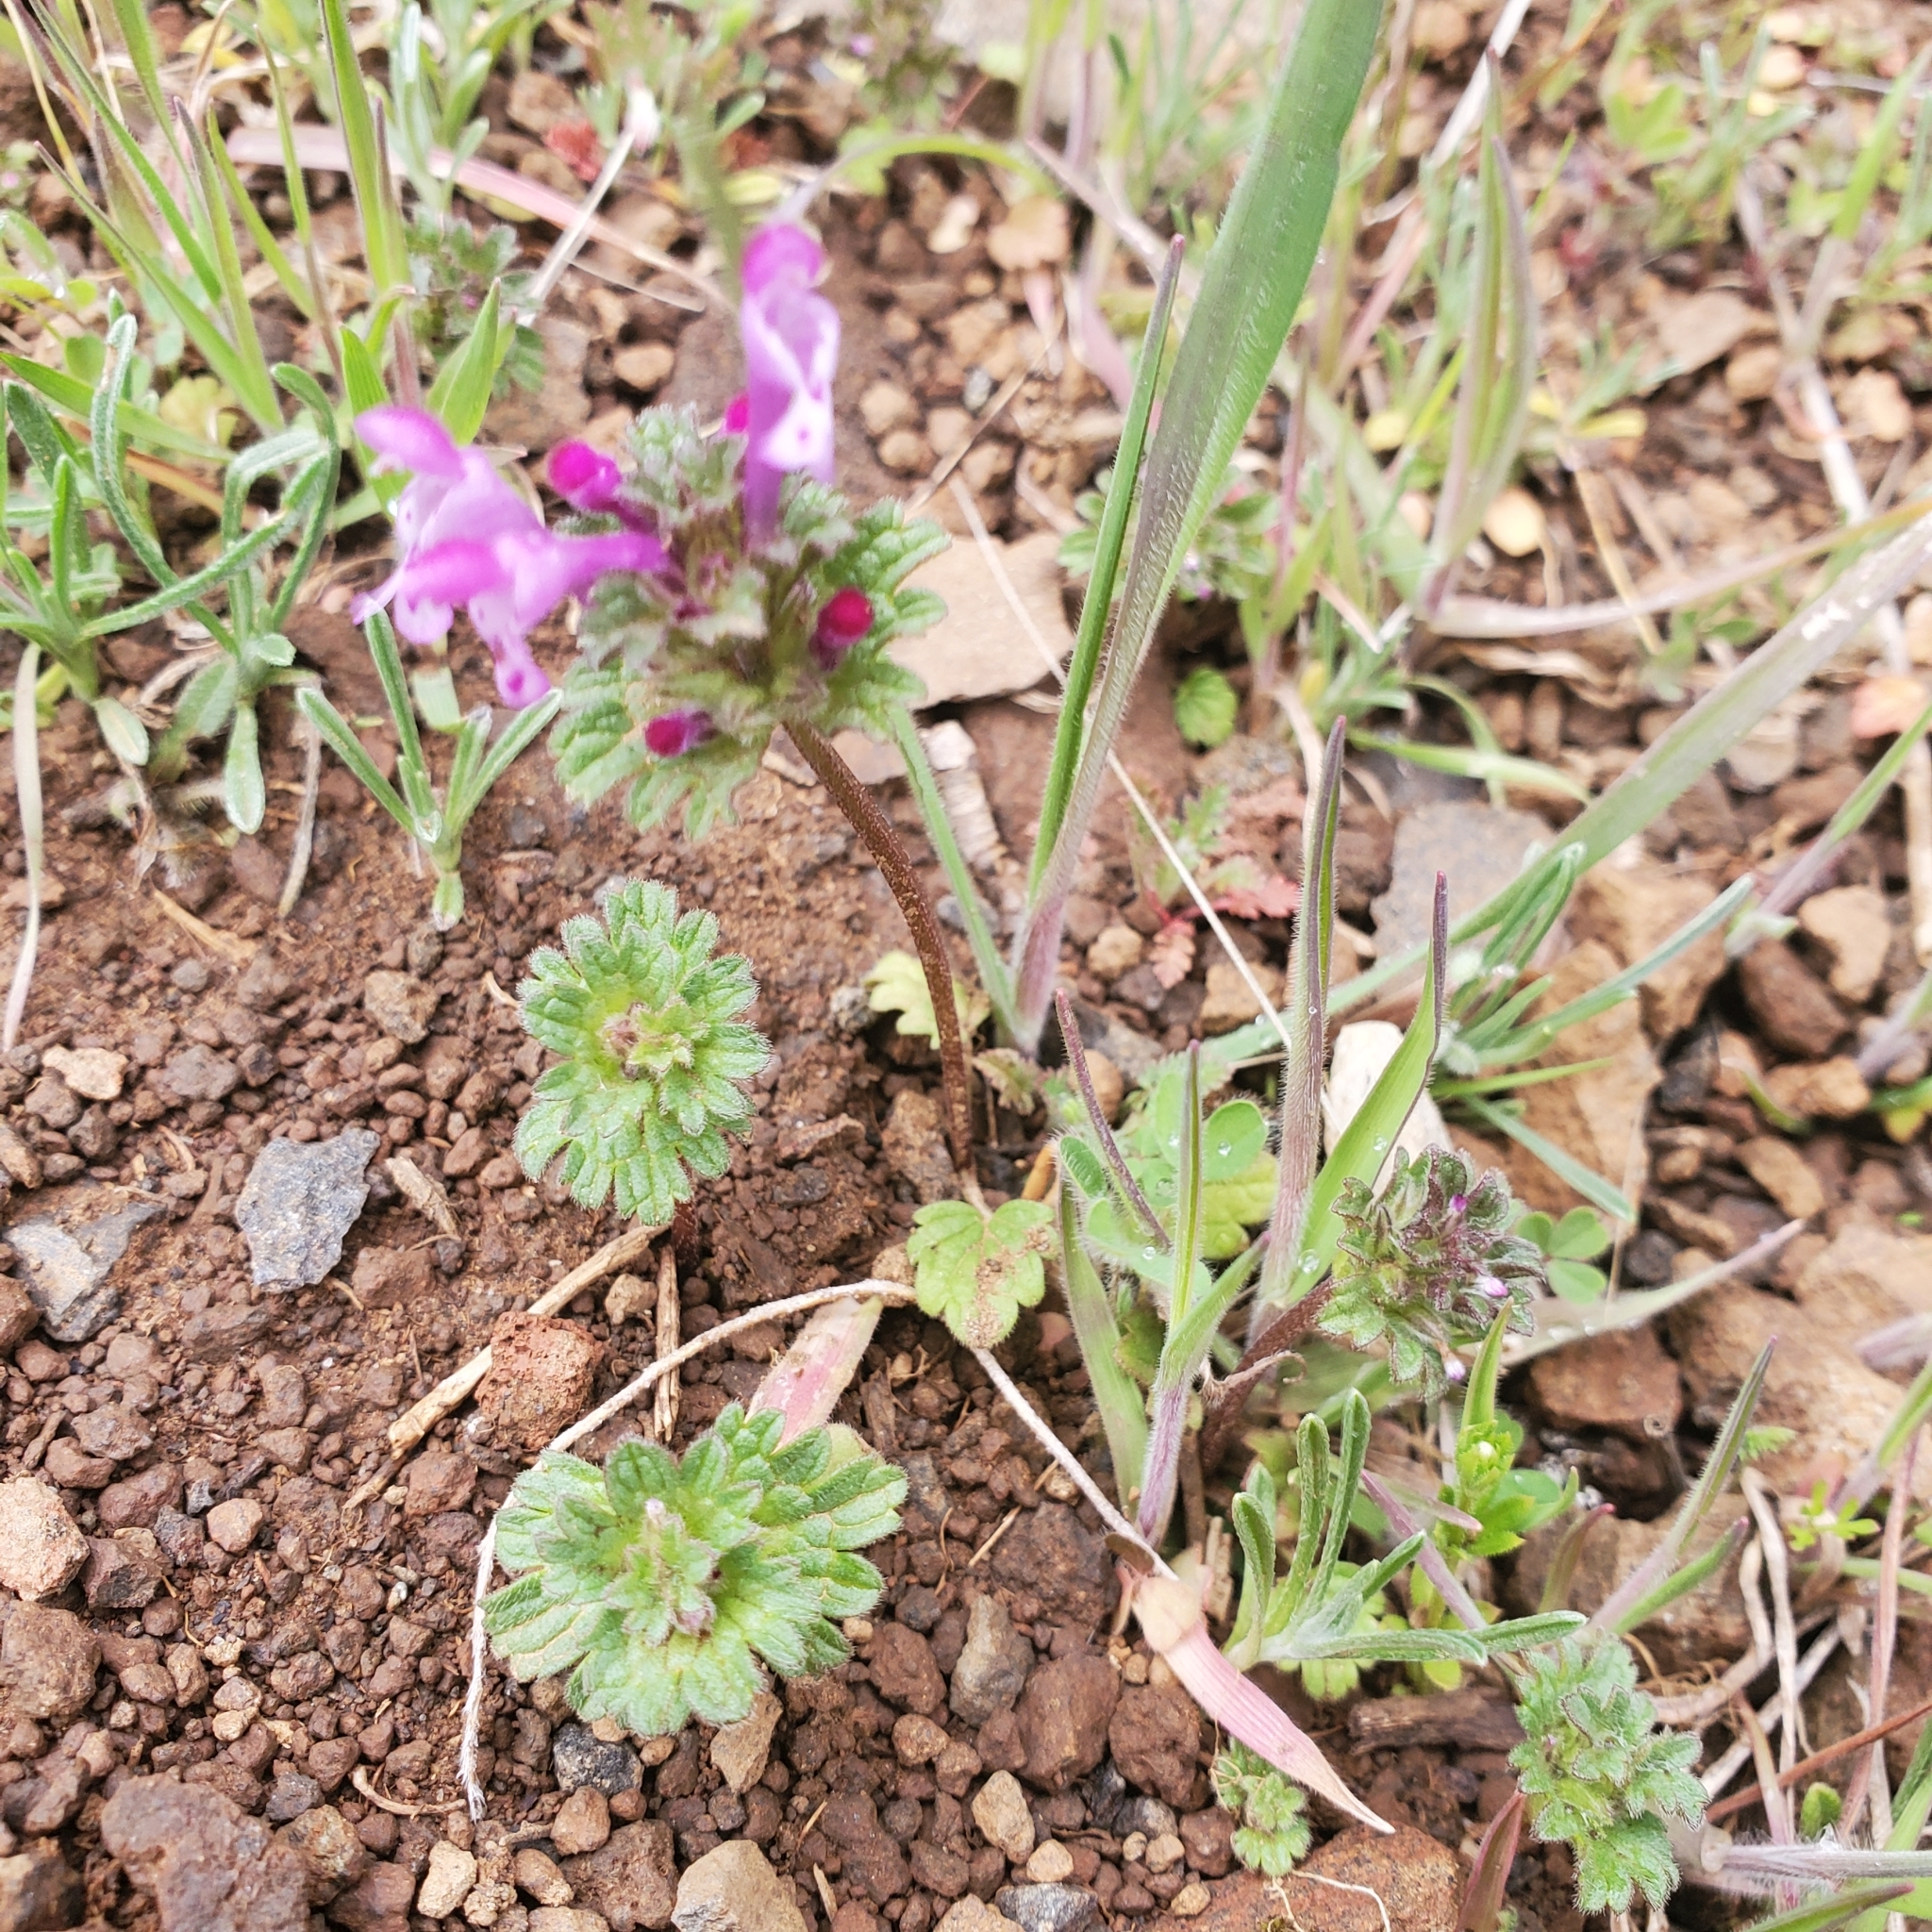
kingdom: Plantae
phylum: Tracheophyta
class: Magnoliopsida
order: Lamiales
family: Lamiaceae
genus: Lamium
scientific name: Lamium amplexicaule
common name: Henbit dead-nettle
